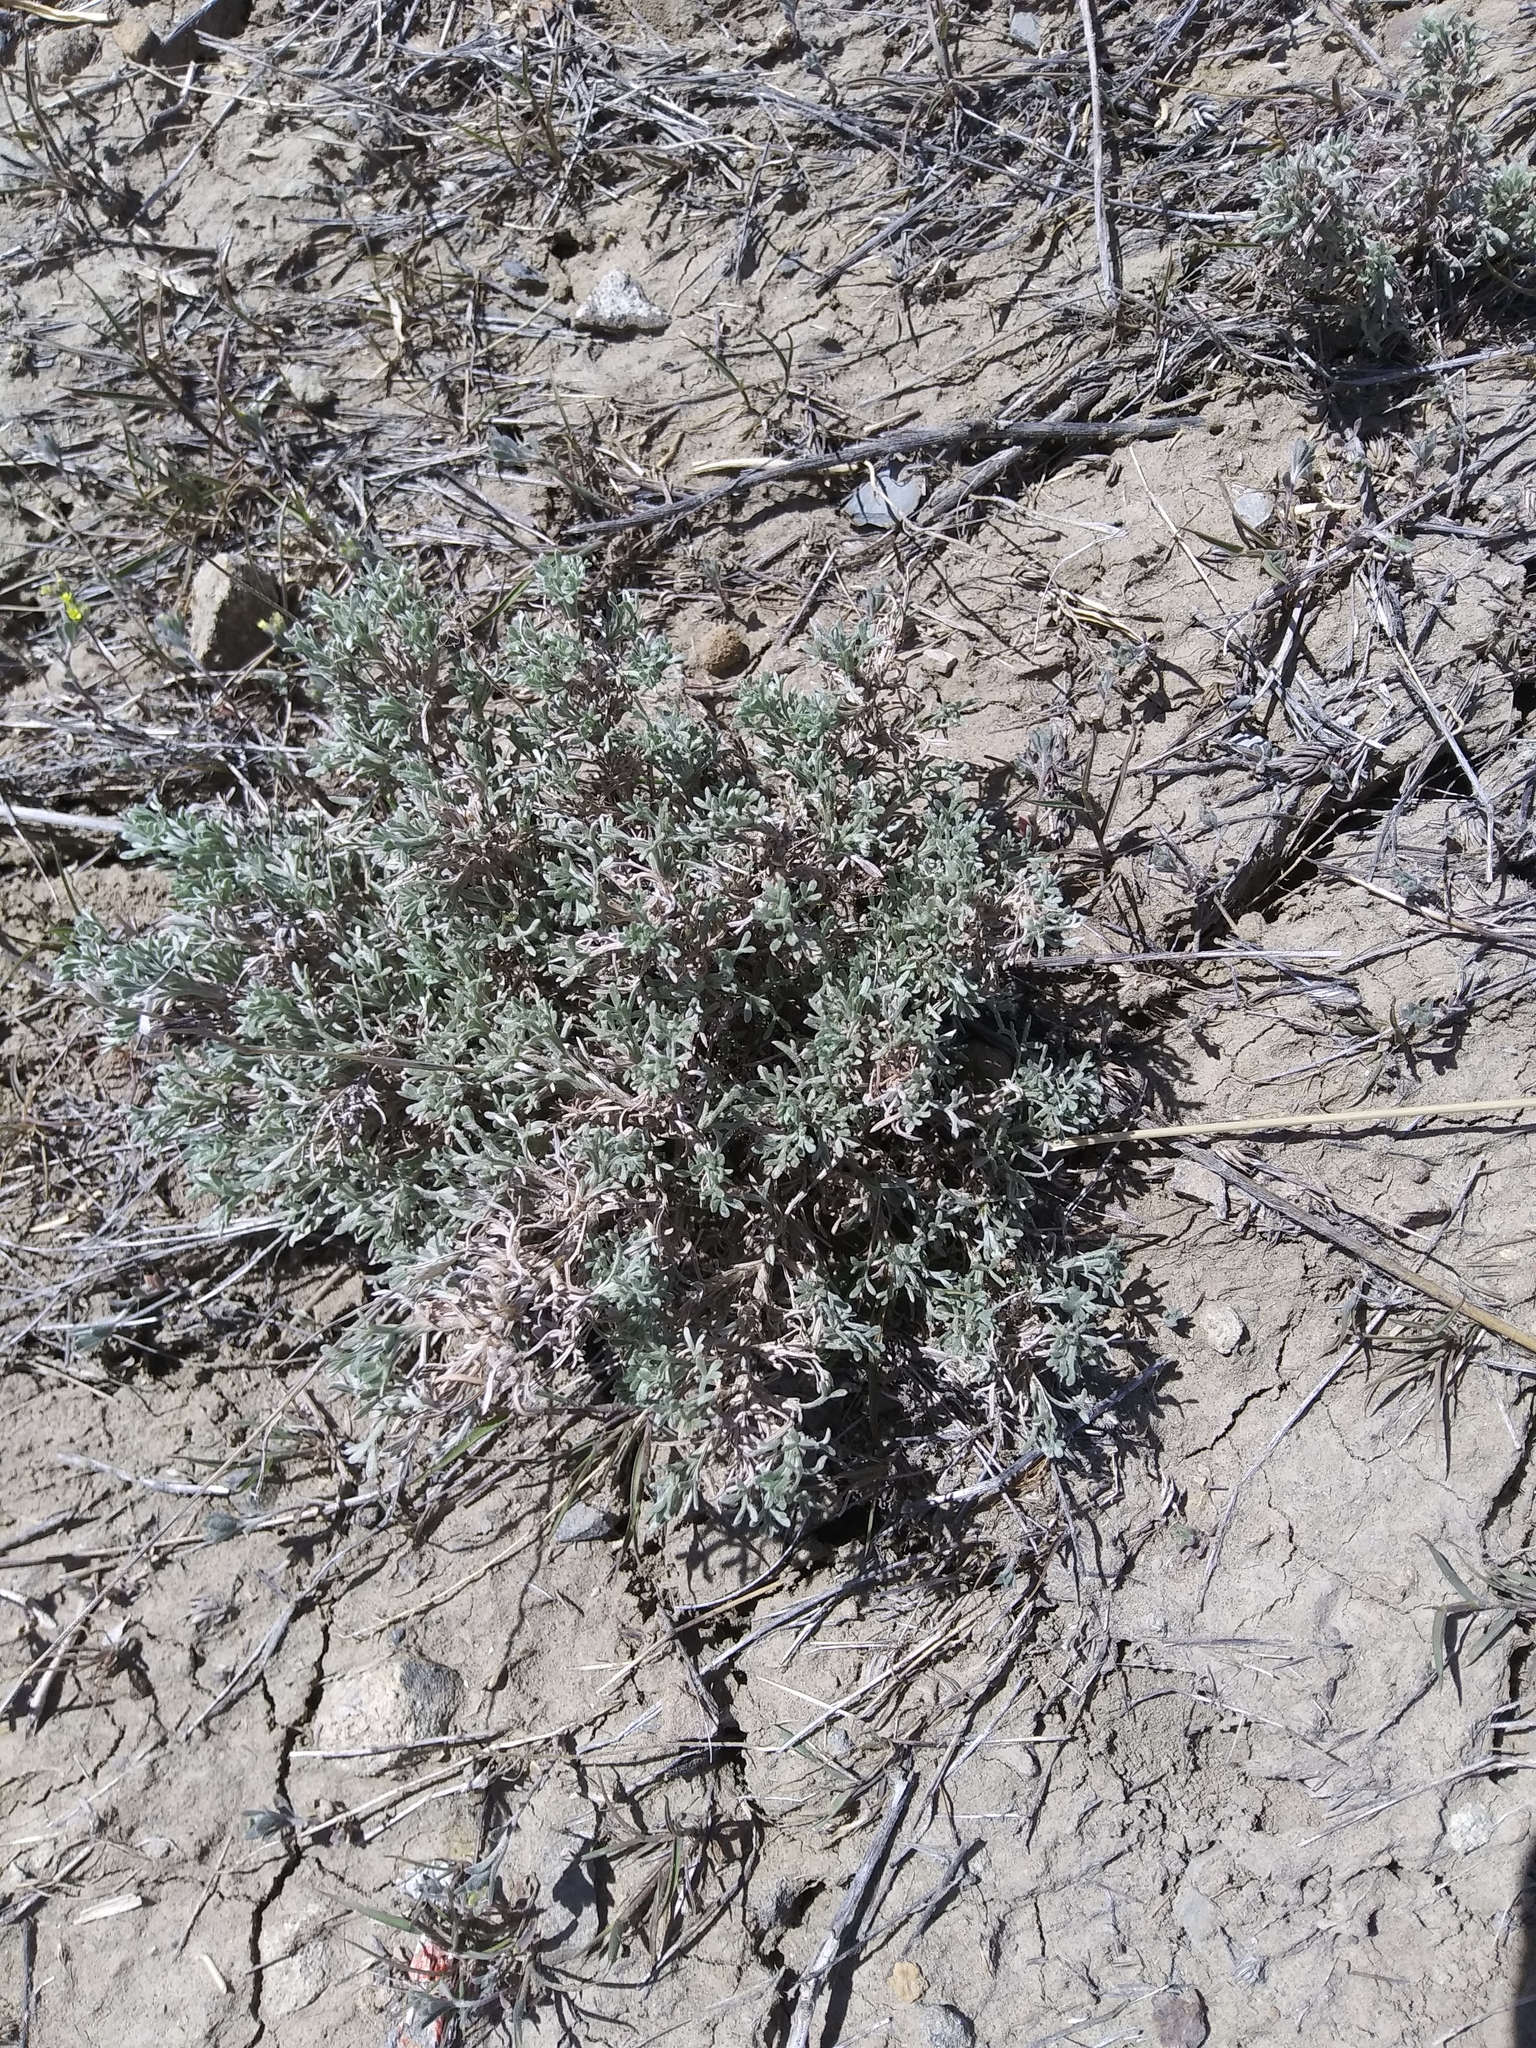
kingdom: Plantae
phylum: Tracheophyta
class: Magnoliopsida
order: Asterales
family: Asteraceae
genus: Artemisia
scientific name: Artemisia pedatifida
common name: Matted sagewort
